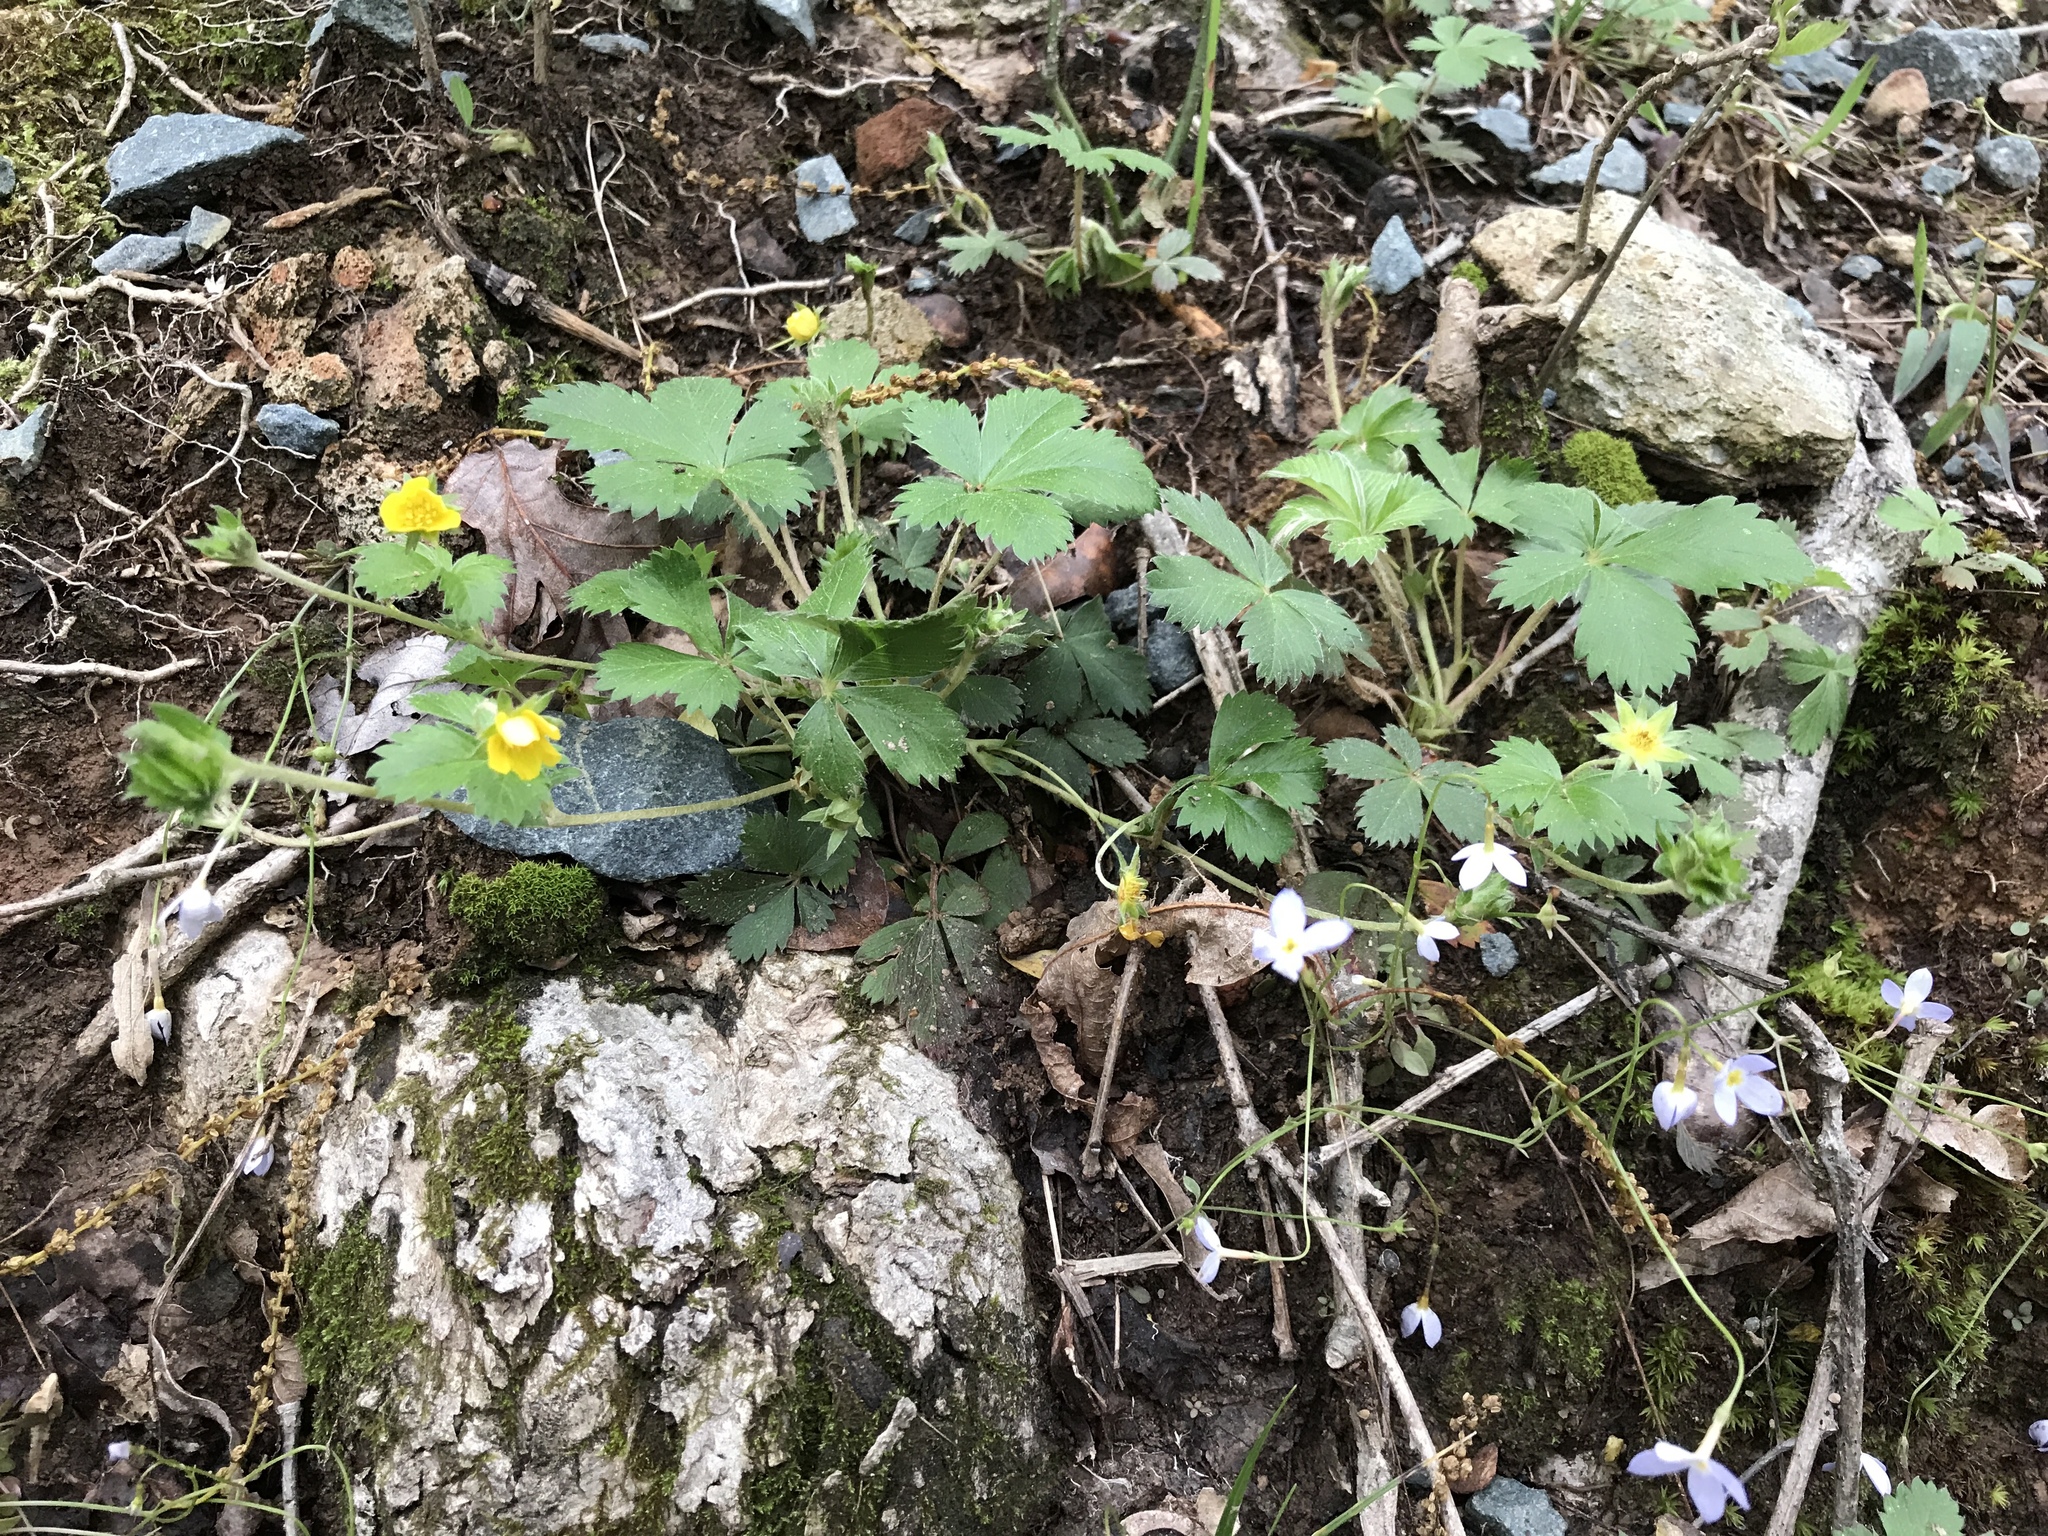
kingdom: Plantae
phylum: Tracheophyta
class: Magnoliopsida
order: Rosales
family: Rosaceae
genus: Potentilla
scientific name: Potentilla canadensis
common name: Canada cinquefoil
